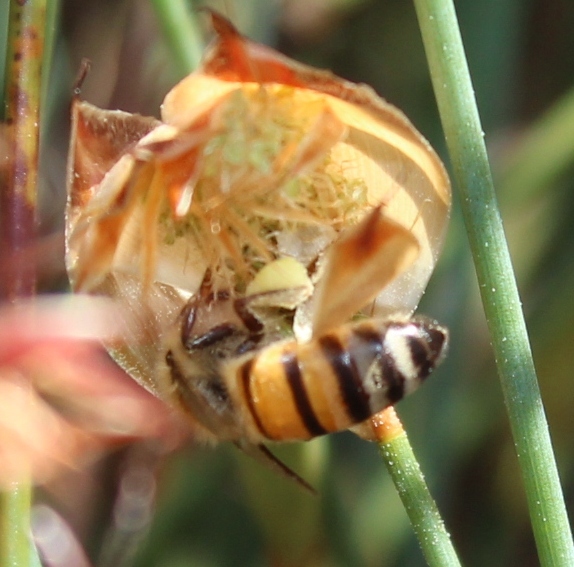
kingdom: Animalia
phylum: Arthropoda
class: Insecta
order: Hymenoptera
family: Apidae
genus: Apis
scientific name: Apis mellifera
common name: Honey bee
